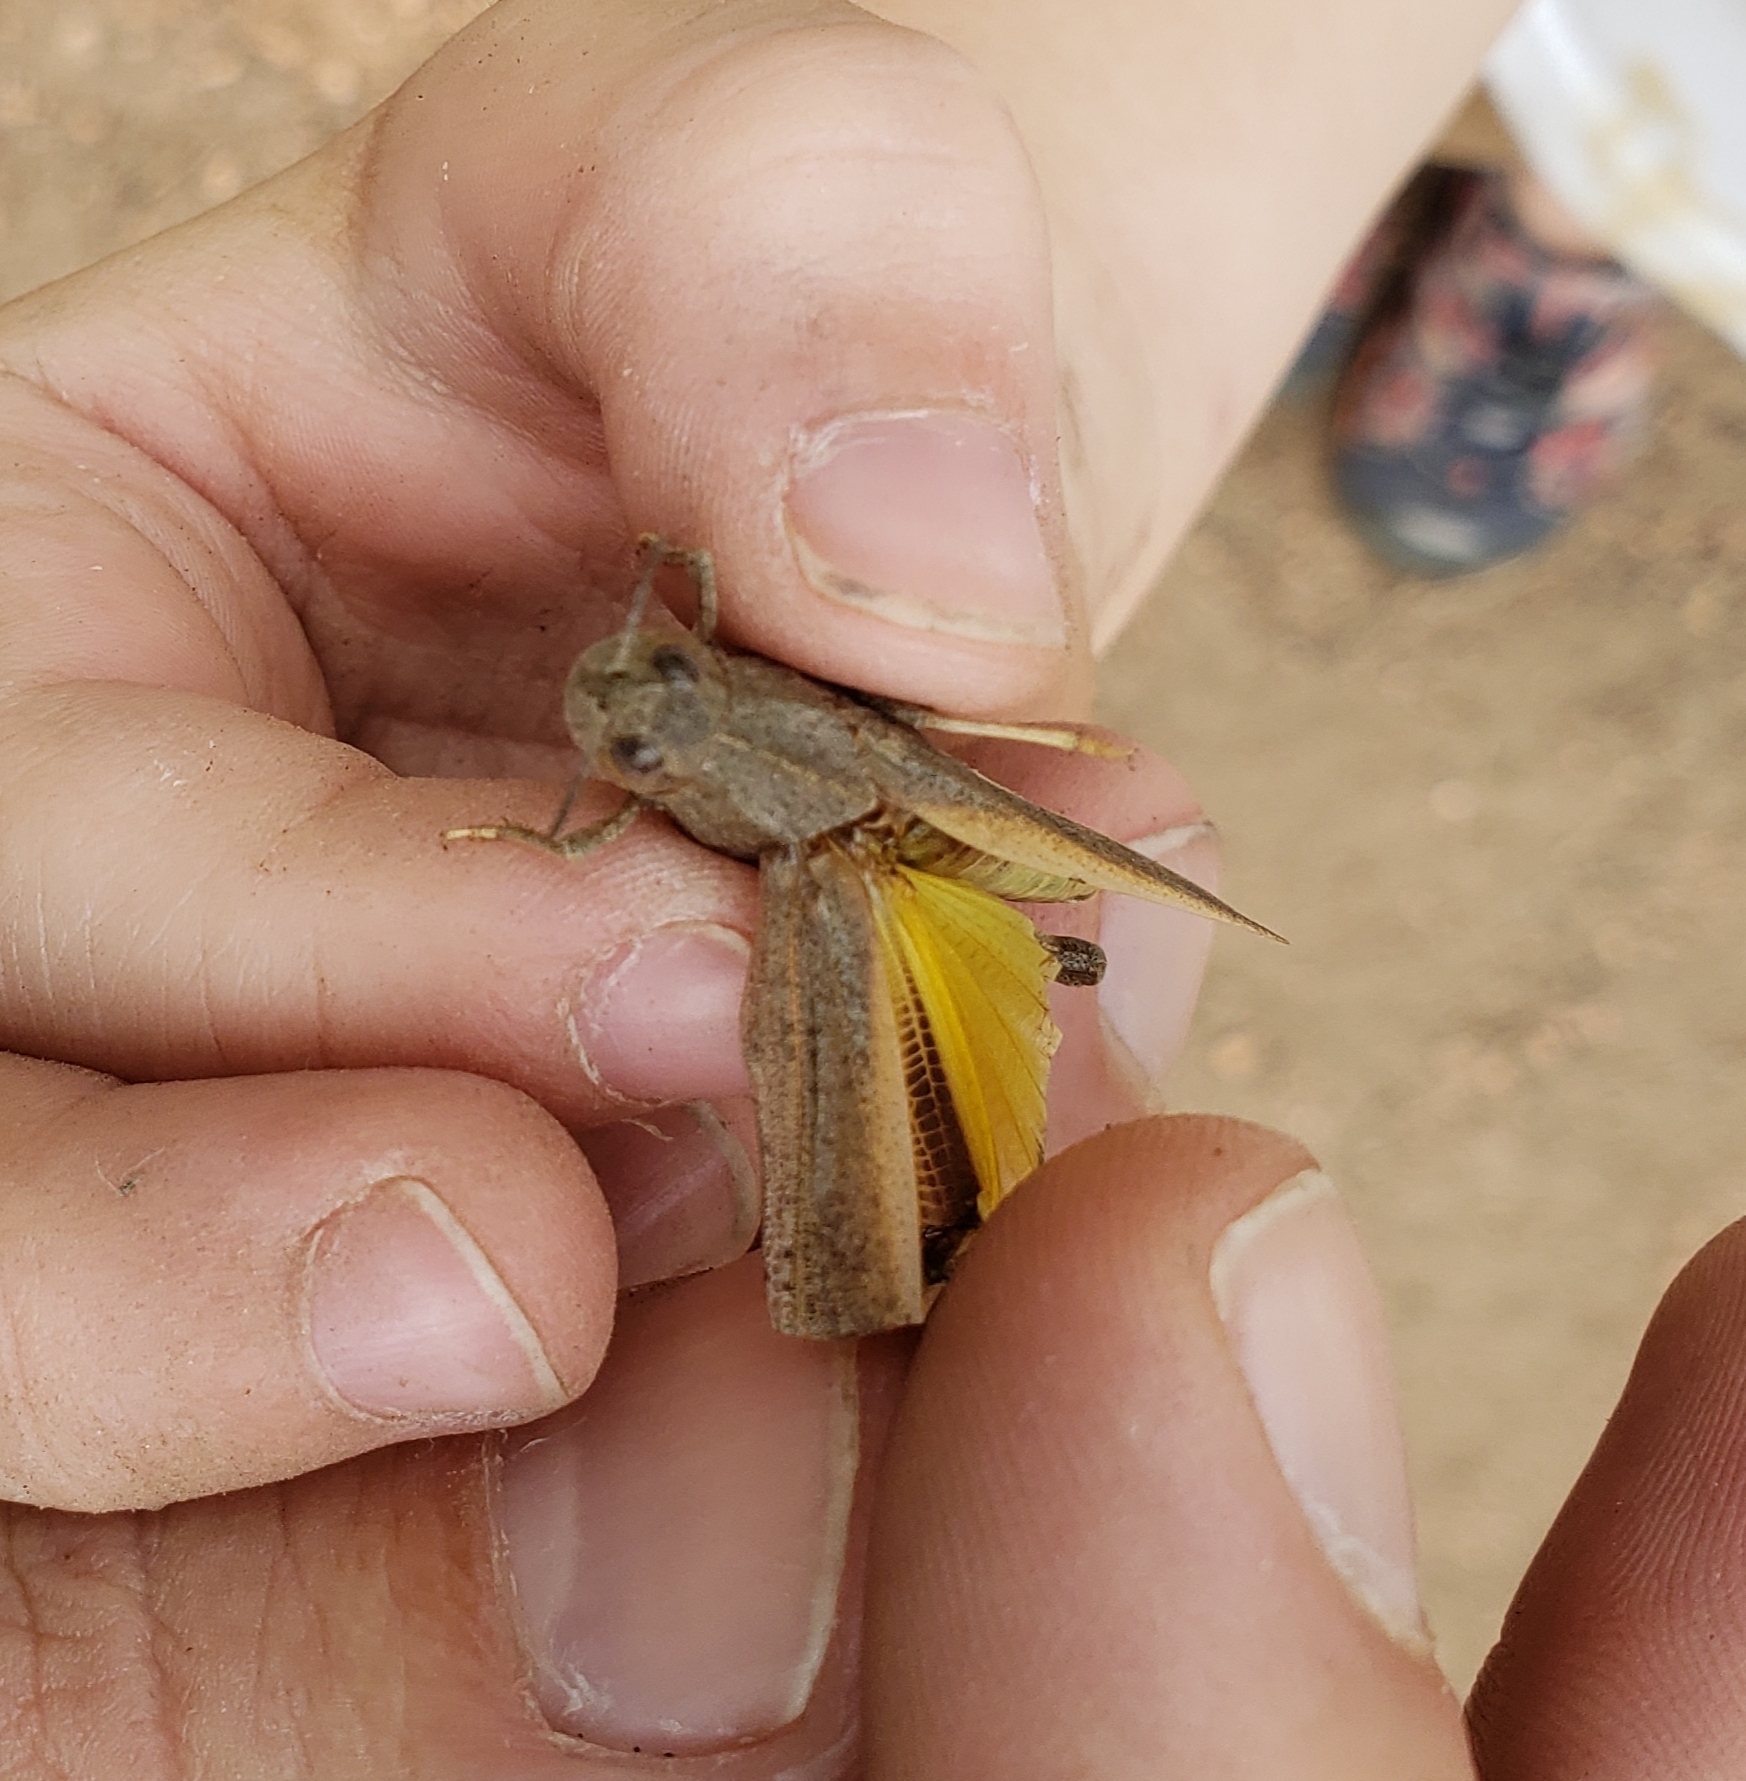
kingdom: Animalia
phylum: Arthropoda
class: Insecta
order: Orthoptera
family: Acrididae
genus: Arphia
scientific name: Arphia conspersa
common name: Speckle-winged rangeland grasshopper
